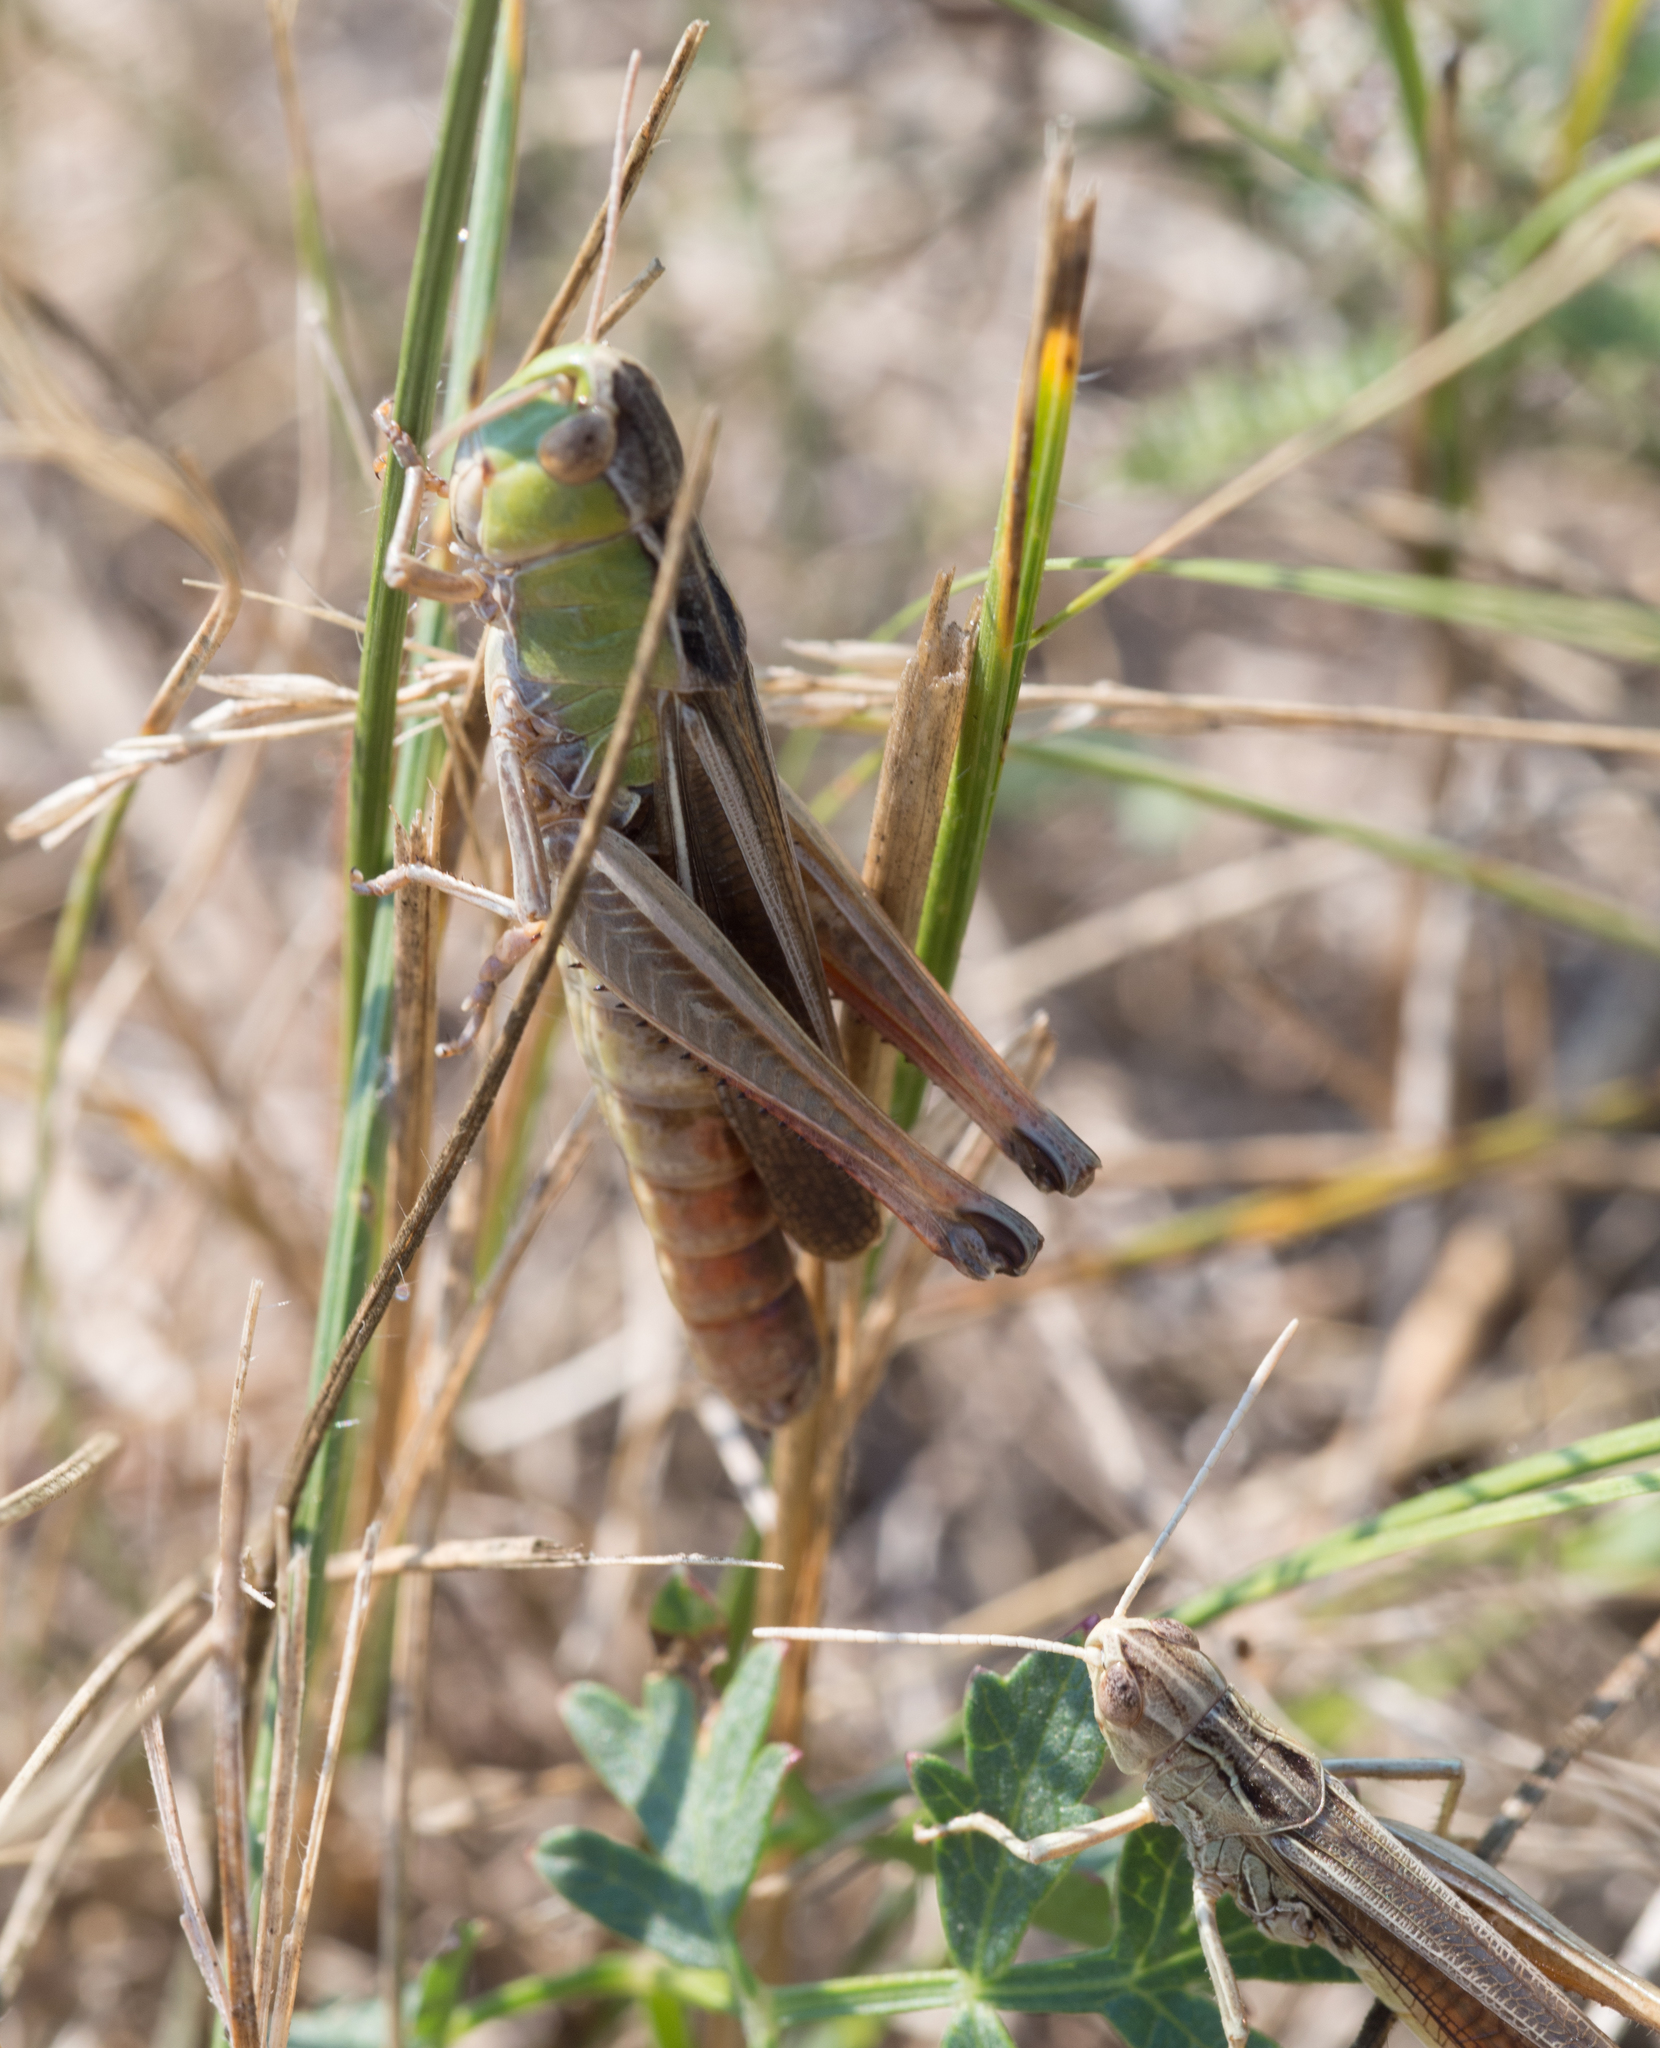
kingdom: Animalia
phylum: Arthropoda
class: Insecta
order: Orthoptera
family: Acrididae
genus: Stenobothrus
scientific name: Stenobothrus lineatus
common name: Stripe-winged grasshopper
